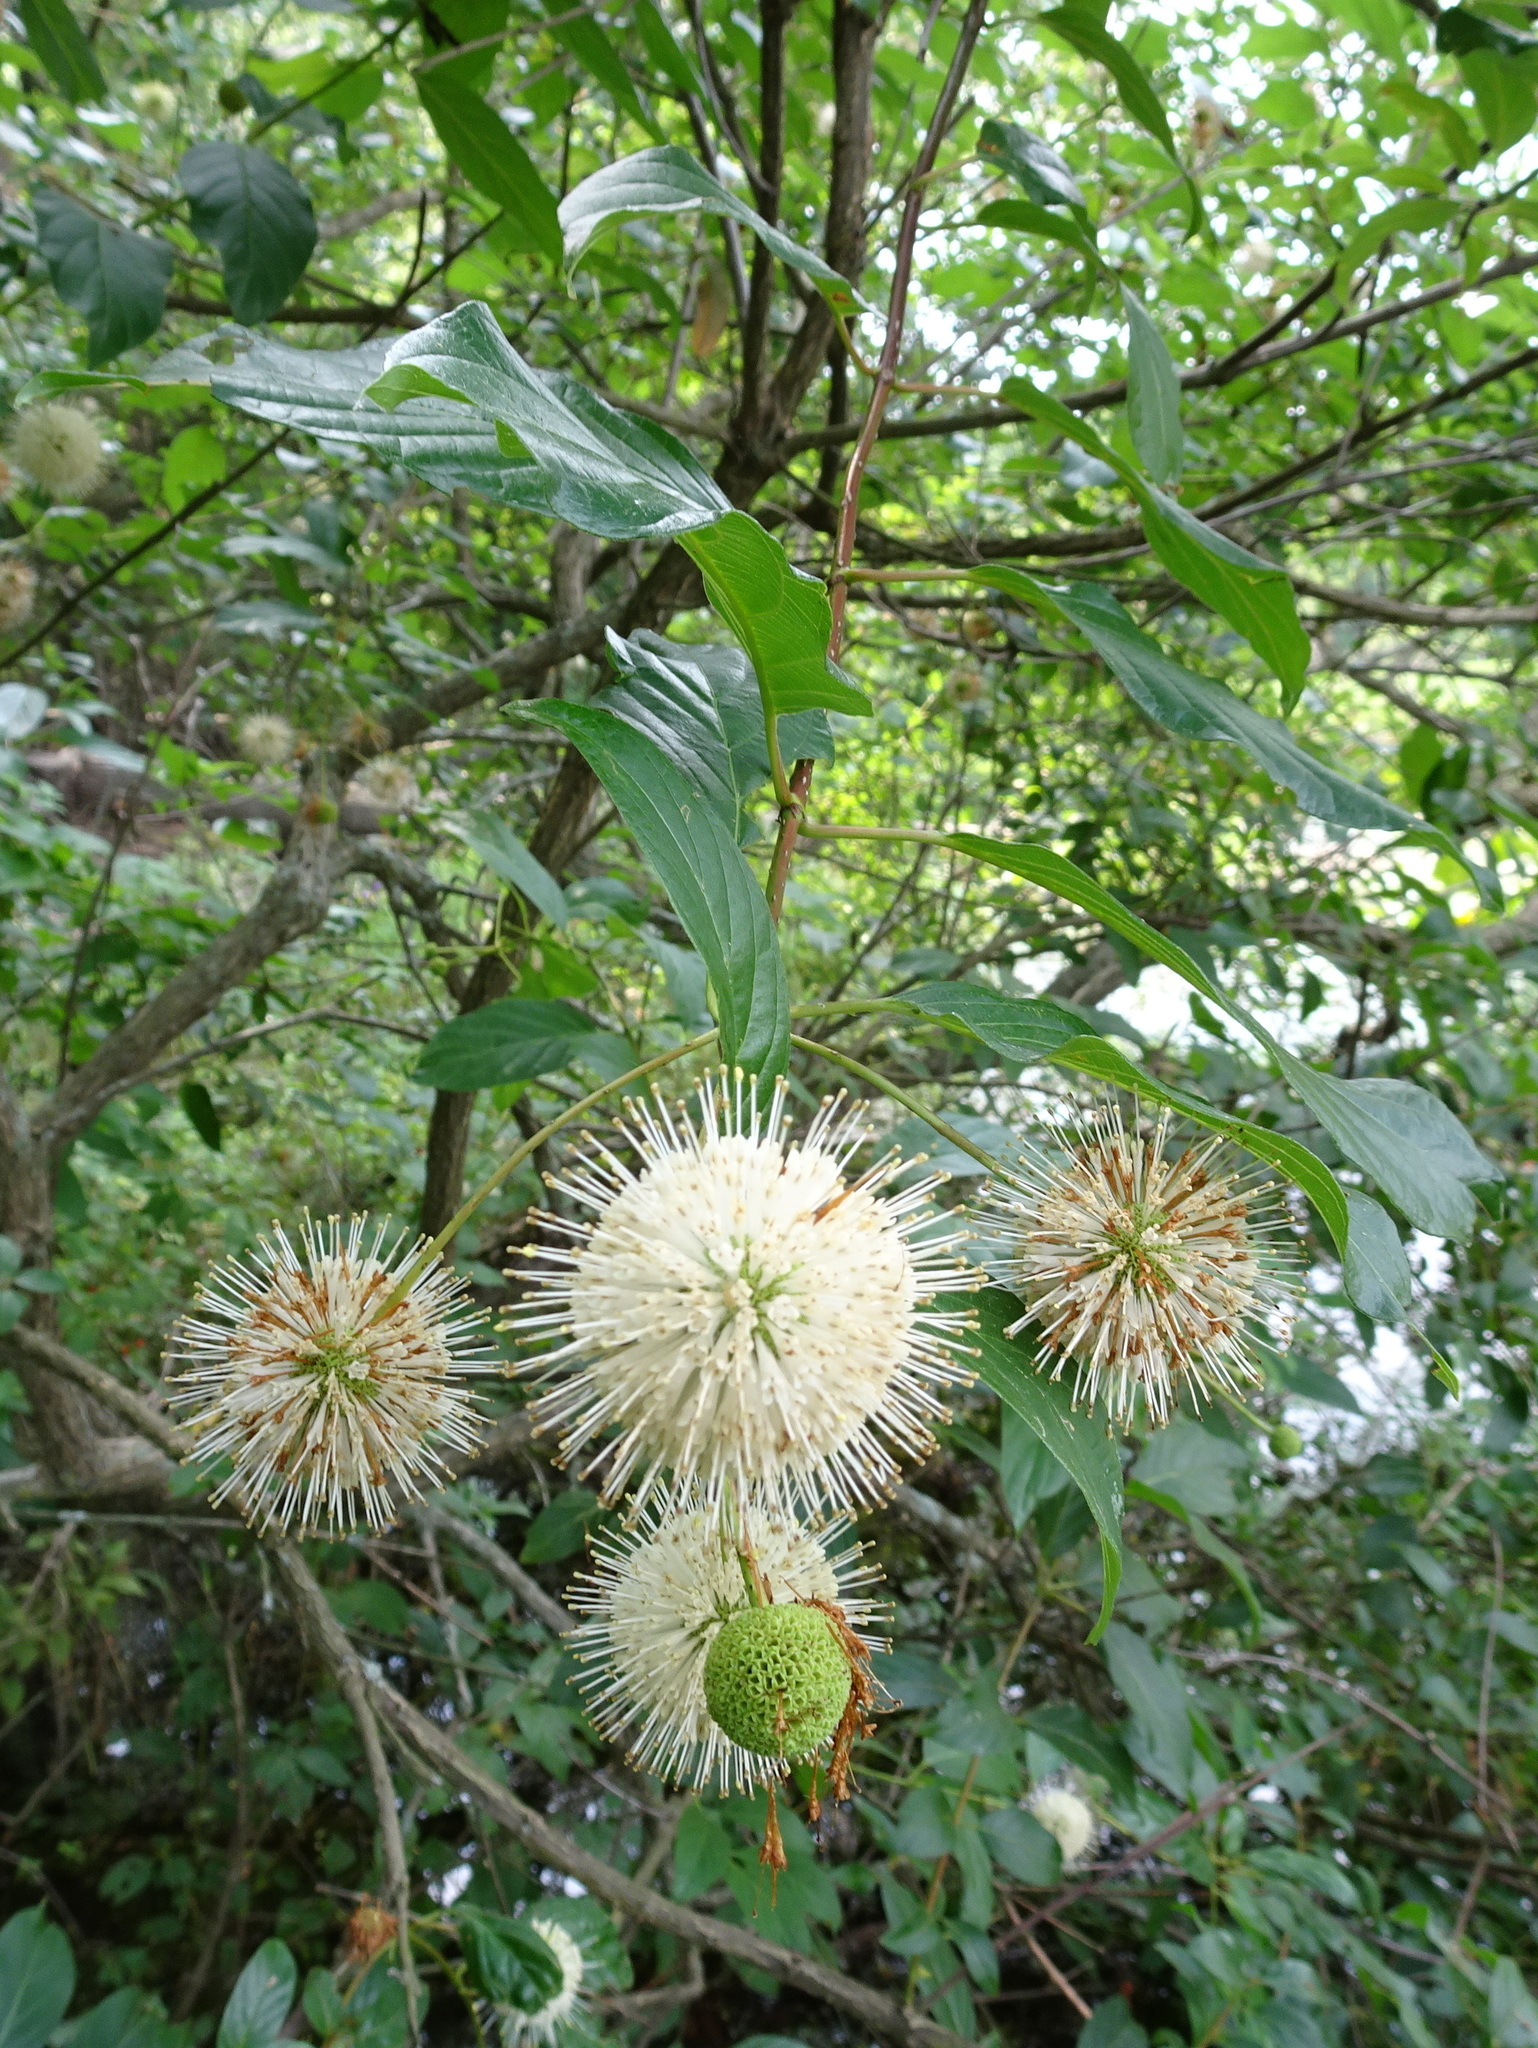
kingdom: Plantae
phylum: Tracheophyta
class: Magnoliopsida
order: Gentianales
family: Rubiaceae
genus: Cephalanthus
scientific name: Cephalanthus occidentalis
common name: Button-willow
